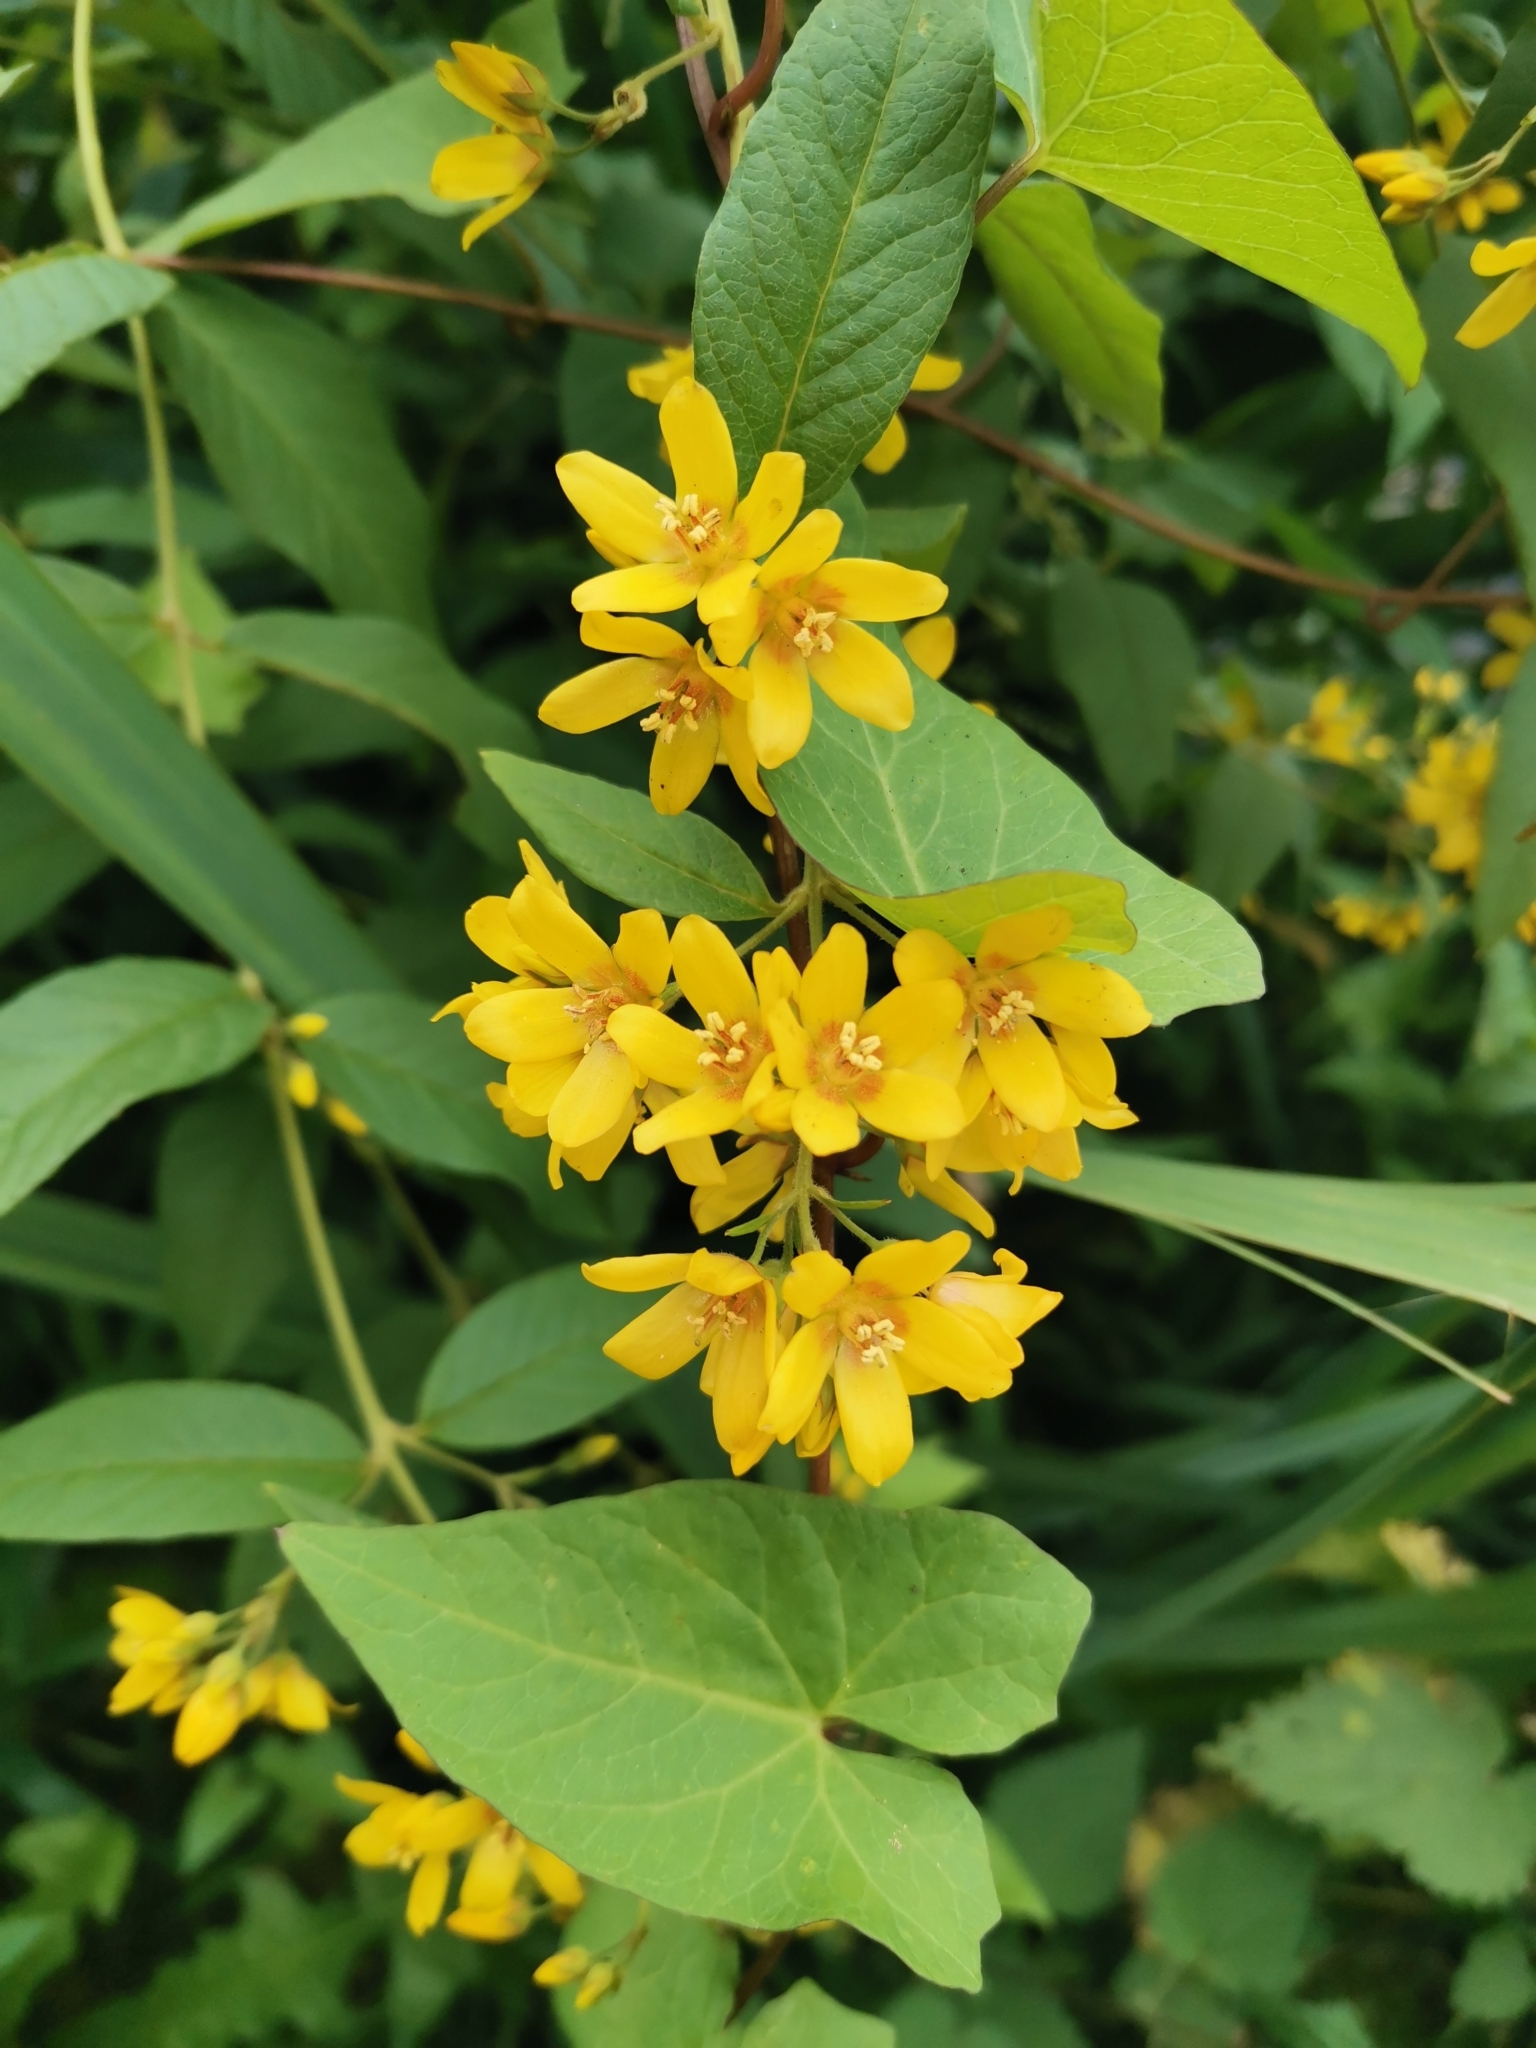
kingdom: Plantae
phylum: Tracheophyta
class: Magnoliopsida
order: Ericales
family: Primulaceae
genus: Lysimachia
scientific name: Lysimachia vulgaris
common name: Yellow loosestrife
